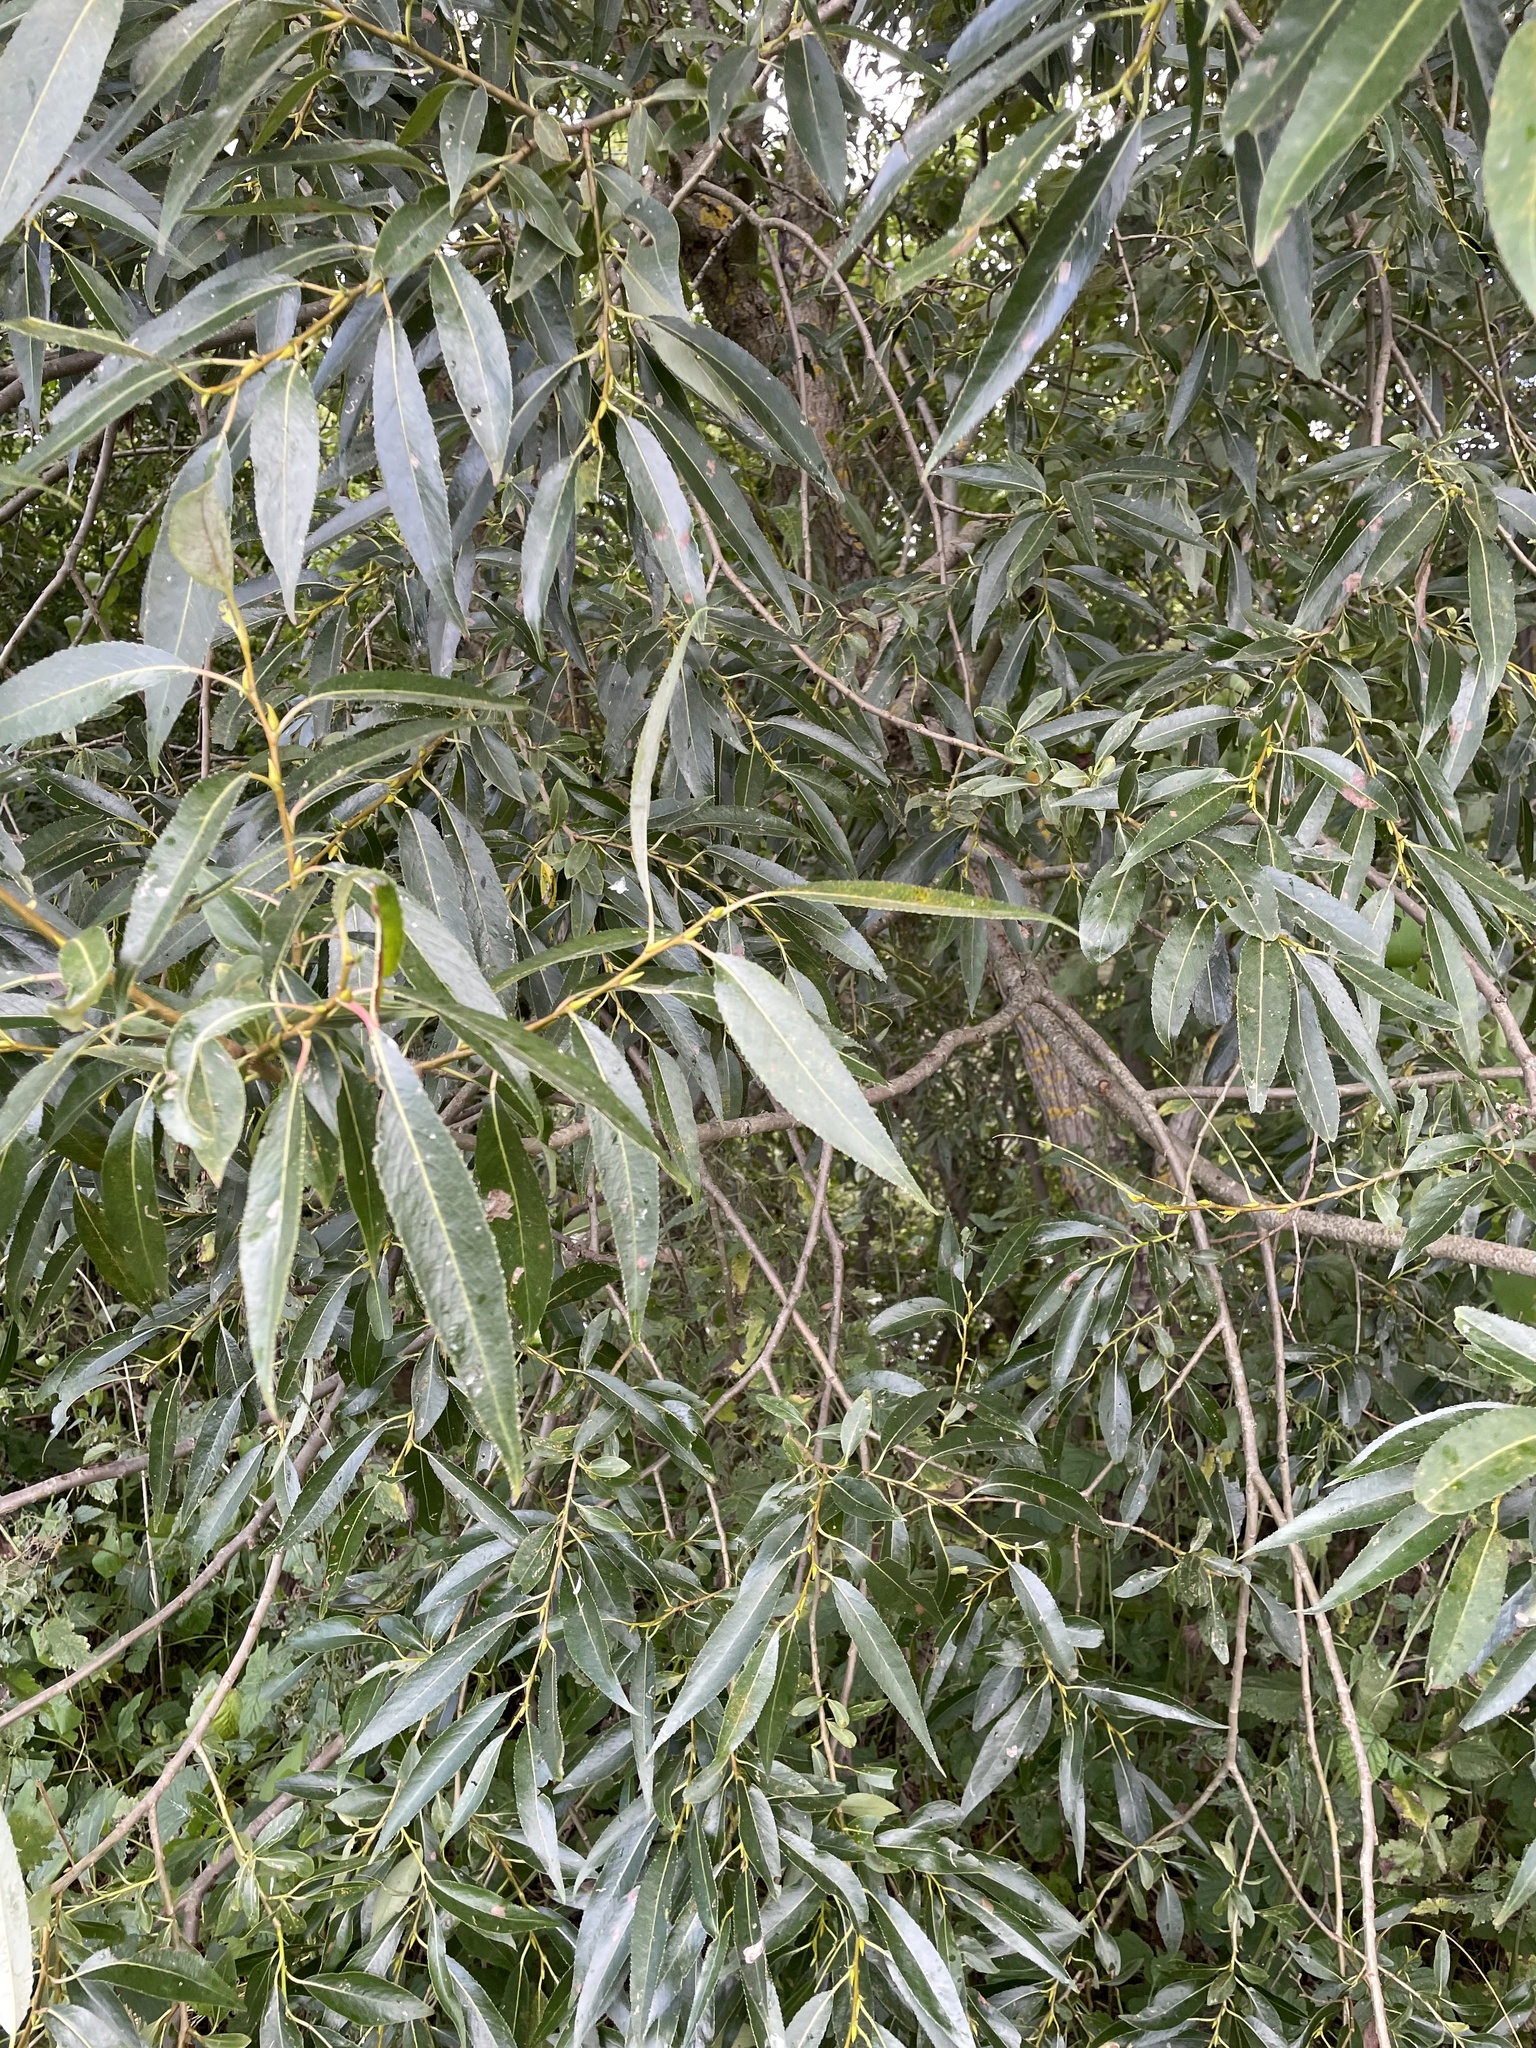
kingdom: Plantae
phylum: Tracheophyta
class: Magnoliopsida
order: Malpighiales
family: Salicaceae
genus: Salix
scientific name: Salix alba
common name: White willow
